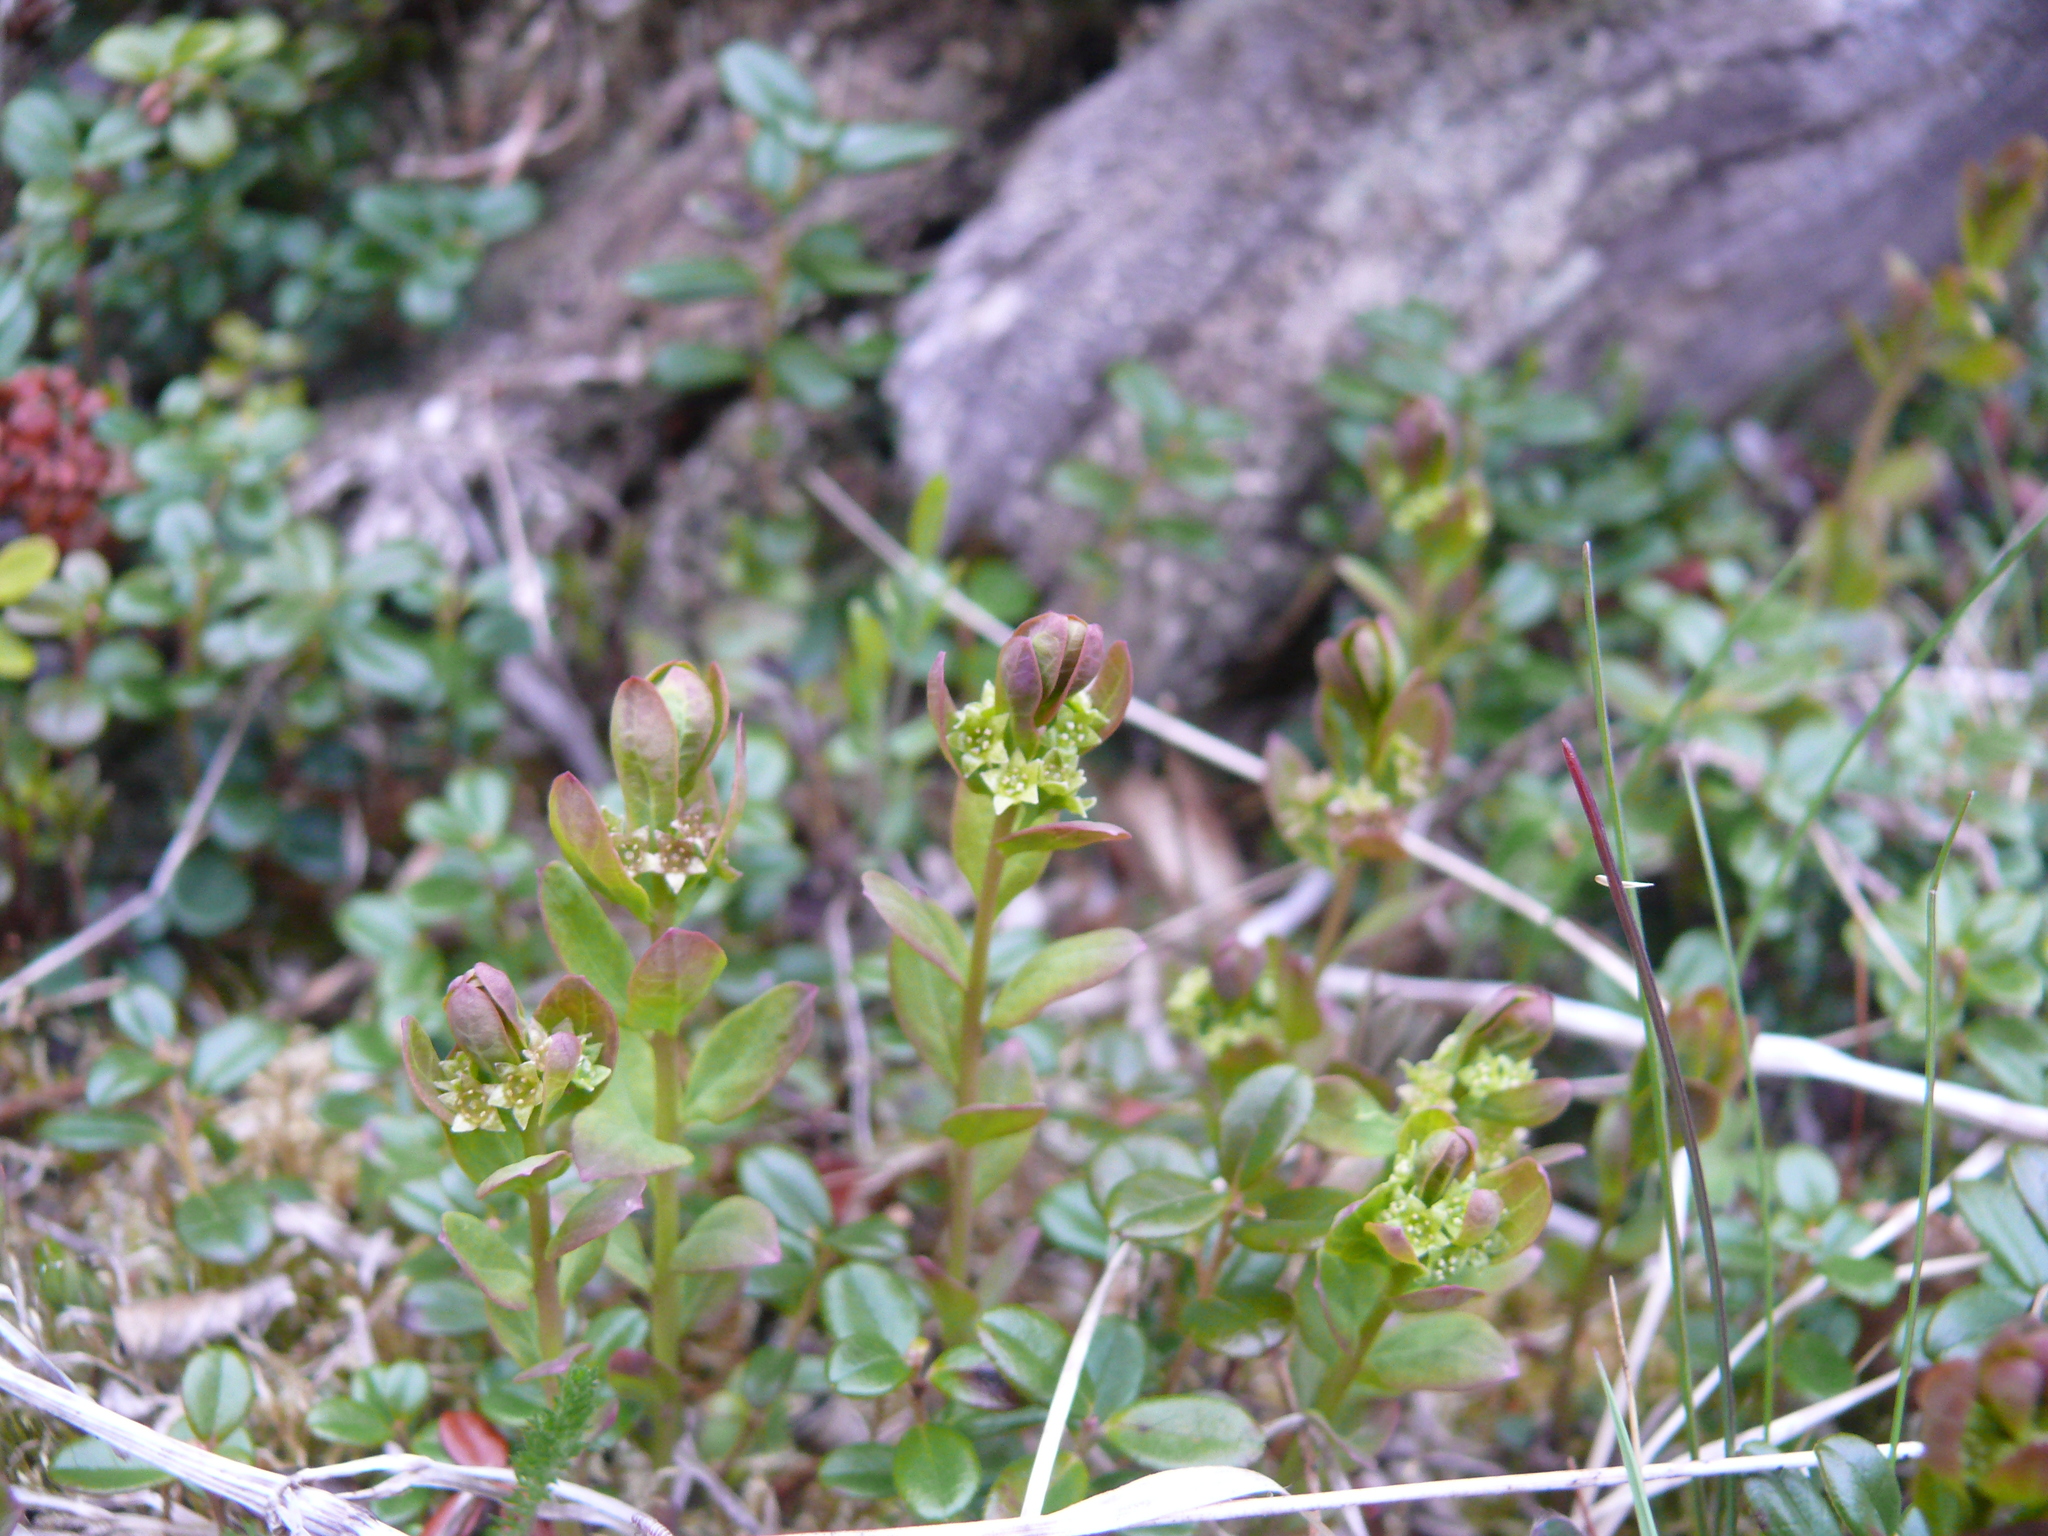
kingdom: Plantae
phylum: Tracheophyta
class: Magnoliopsida
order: Santalales
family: Comandraceae
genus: Geocaulon
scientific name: Geocaulon lividum
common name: Earthberry
